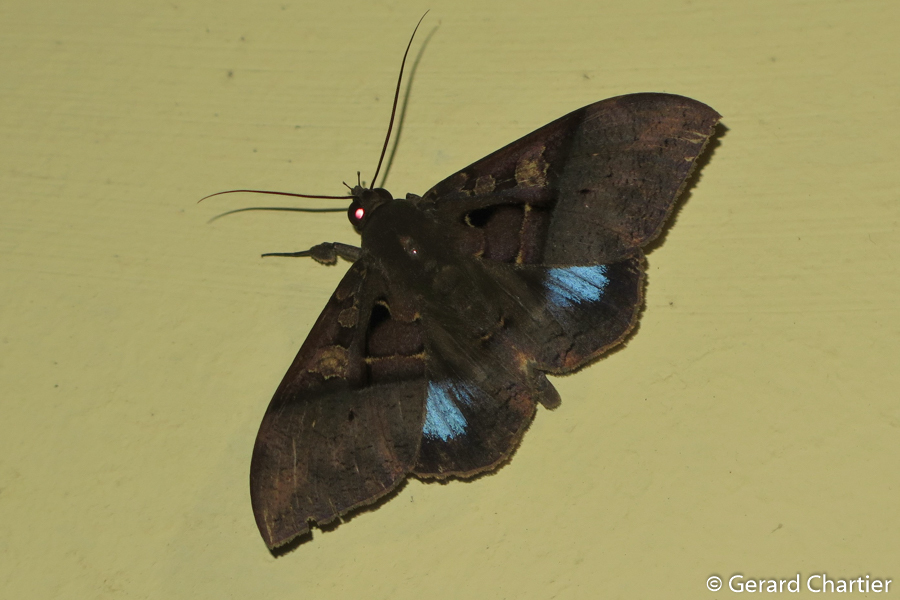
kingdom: Animalia
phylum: Arthropoda
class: Insecta
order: Lepidoptera
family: Erebidae
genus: Ischyja
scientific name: Ischyja inferna
